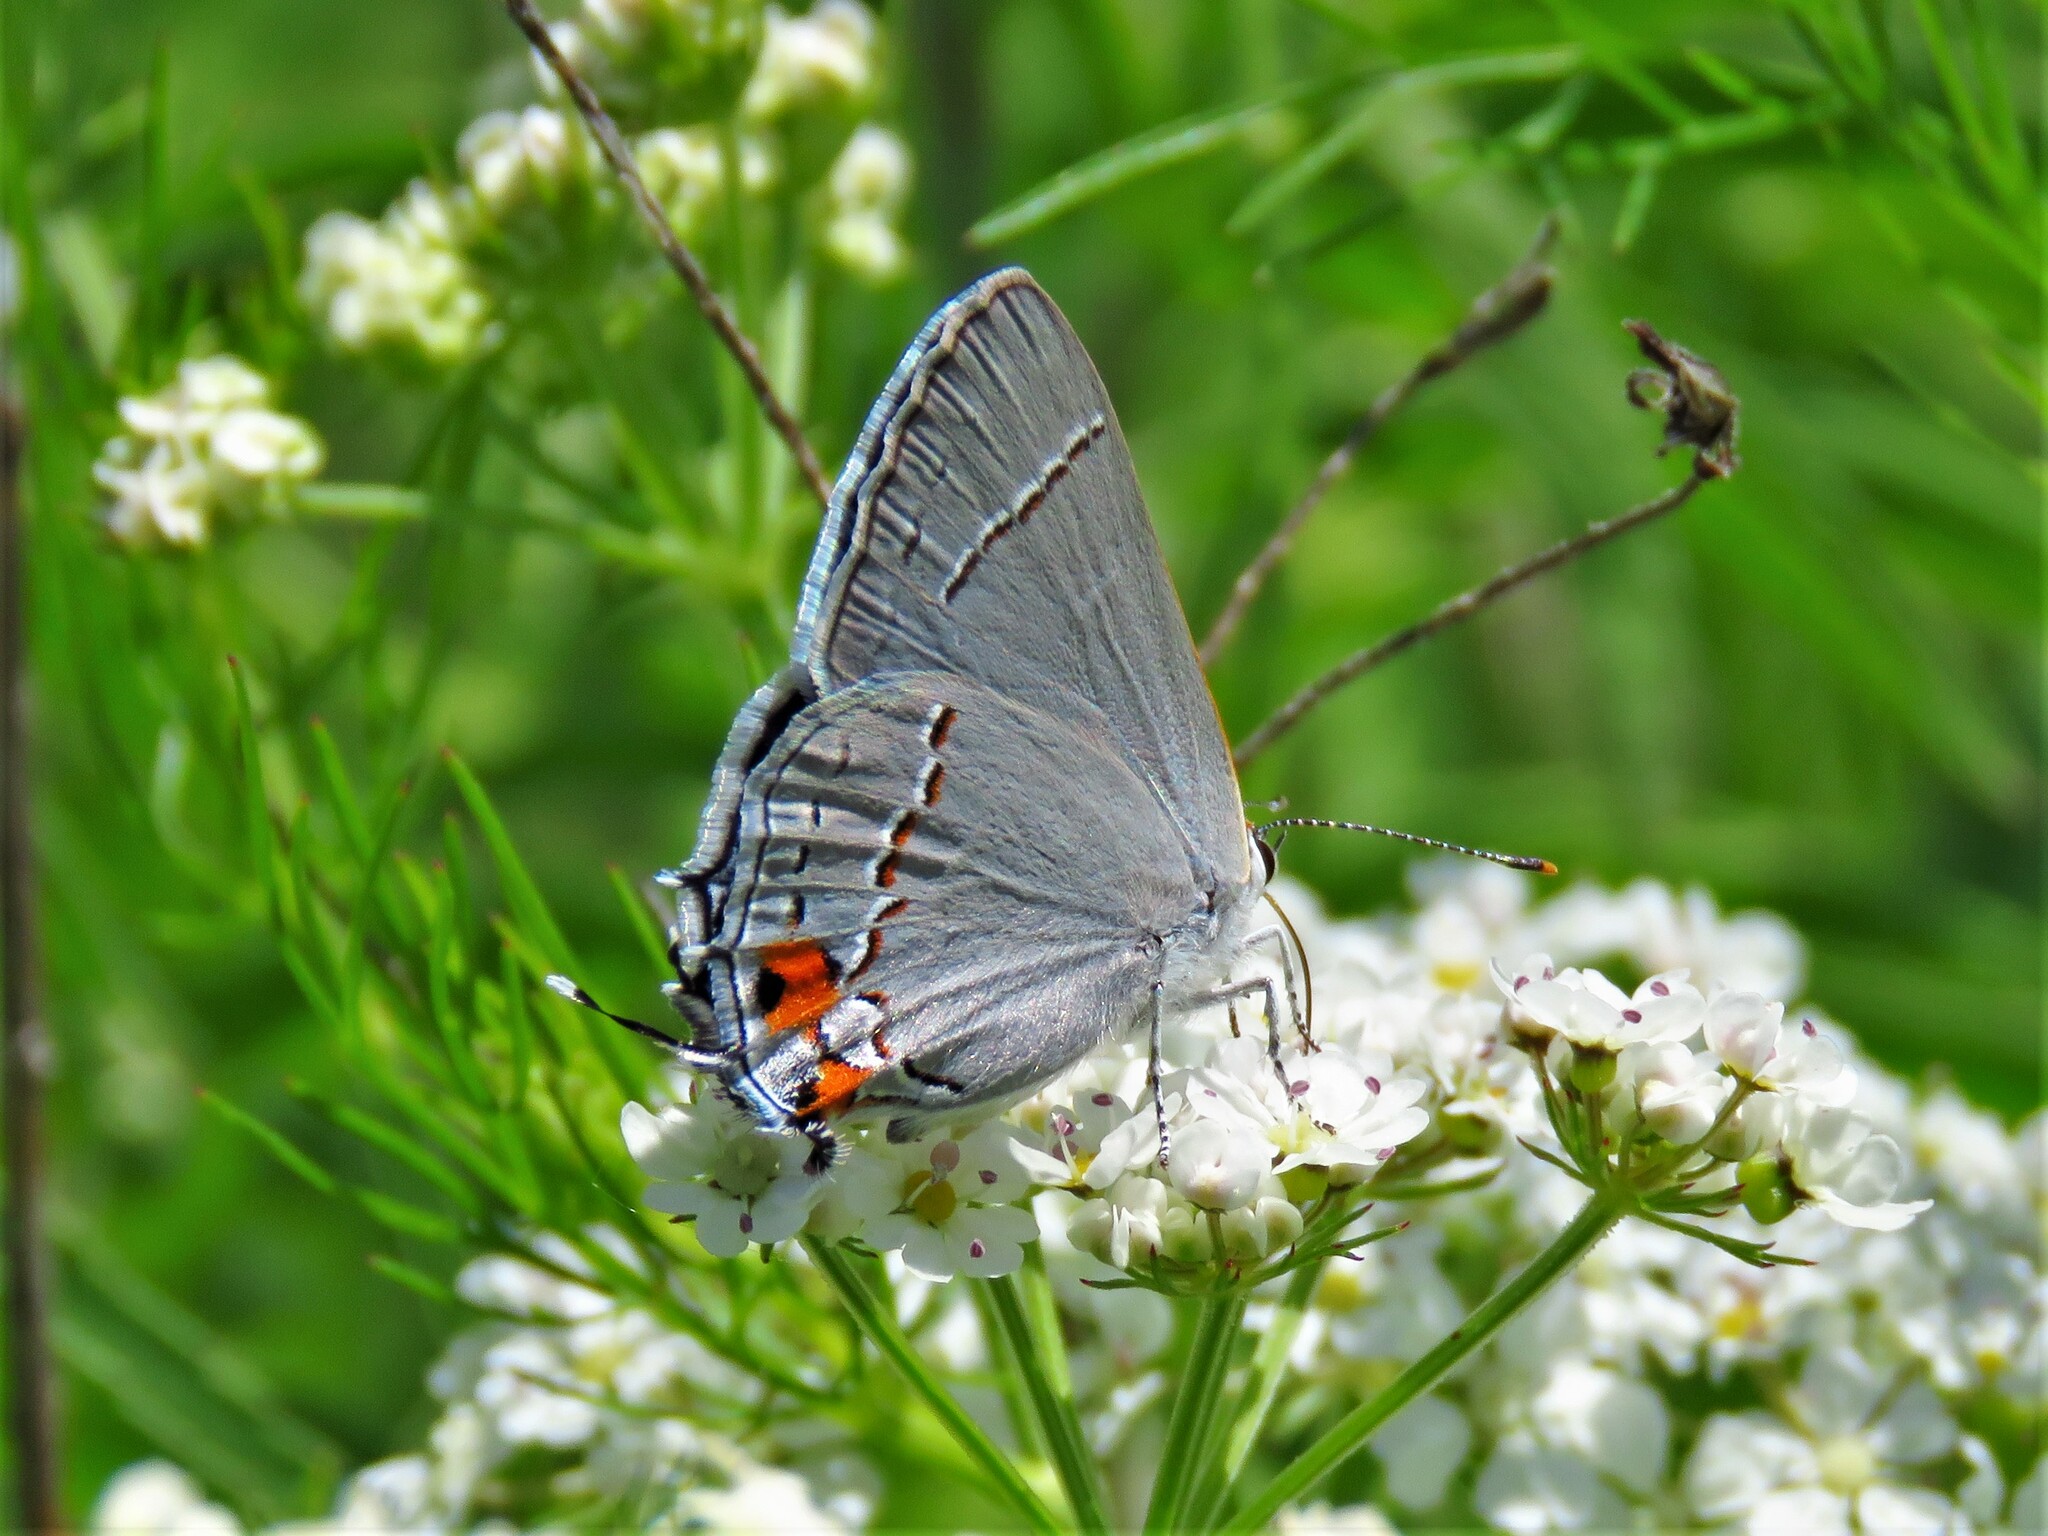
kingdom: Animalia
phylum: Arthropoda
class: Insecta
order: Lepidoptera
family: Lycaenidae
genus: Strymon
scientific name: Strymon melinus
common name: Gray hairstreak
